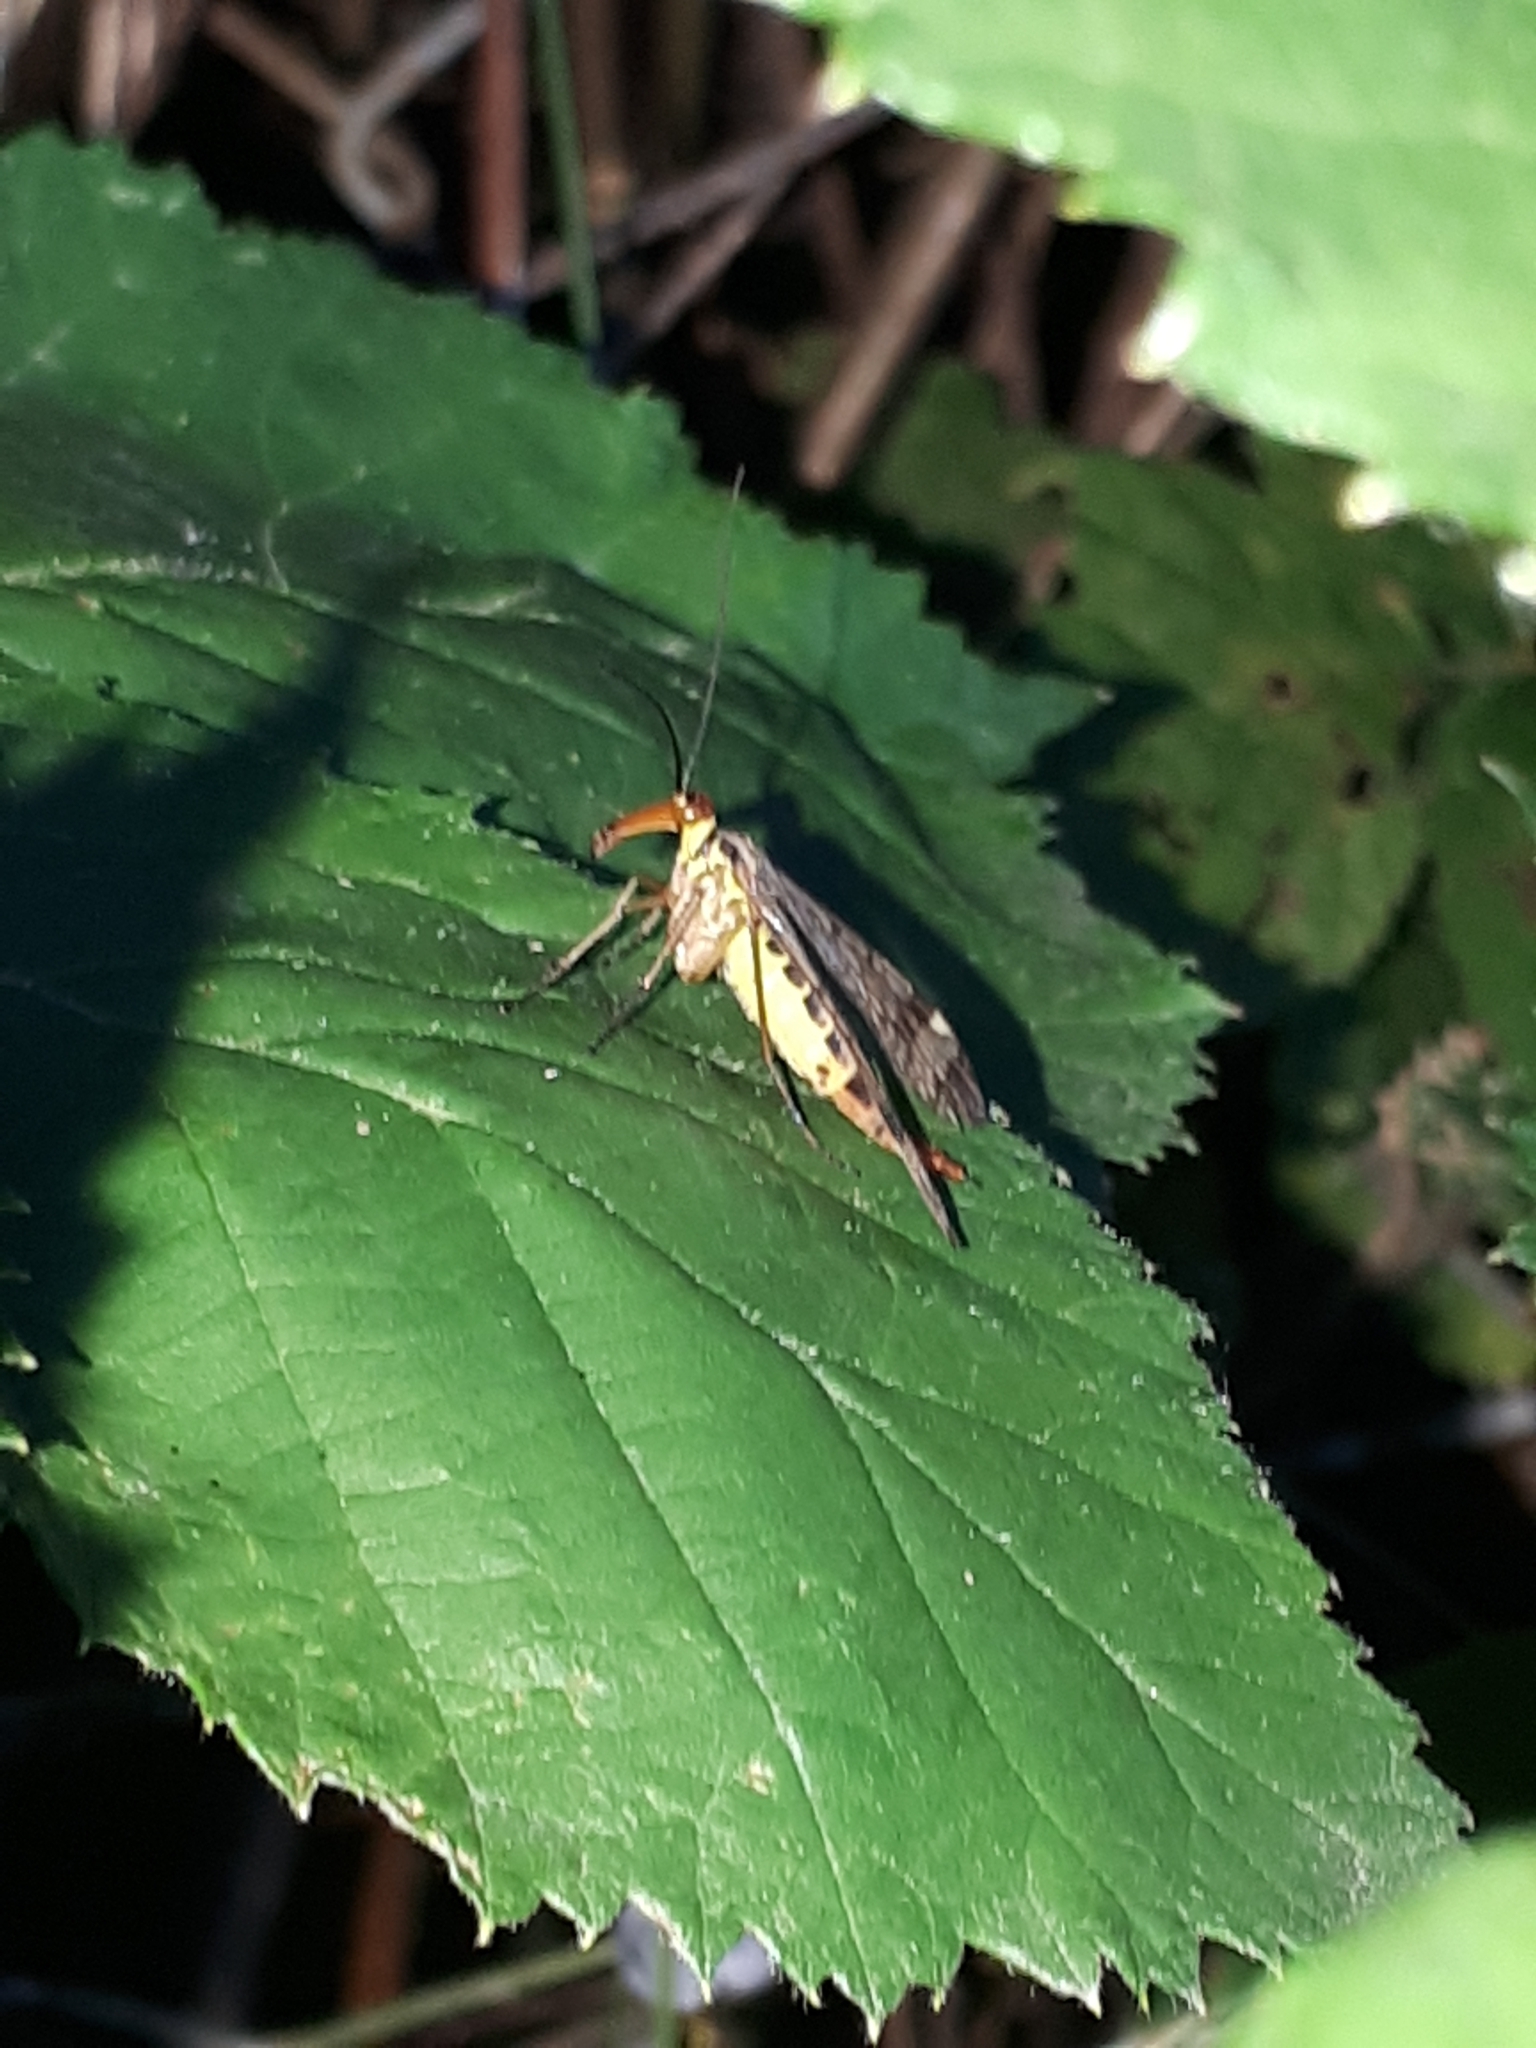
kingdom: Animalia
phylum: Arthropoda
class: Insecta
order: Mecoptera
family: Panorpidae
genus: Panorpa
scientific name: Panorpa cognata
